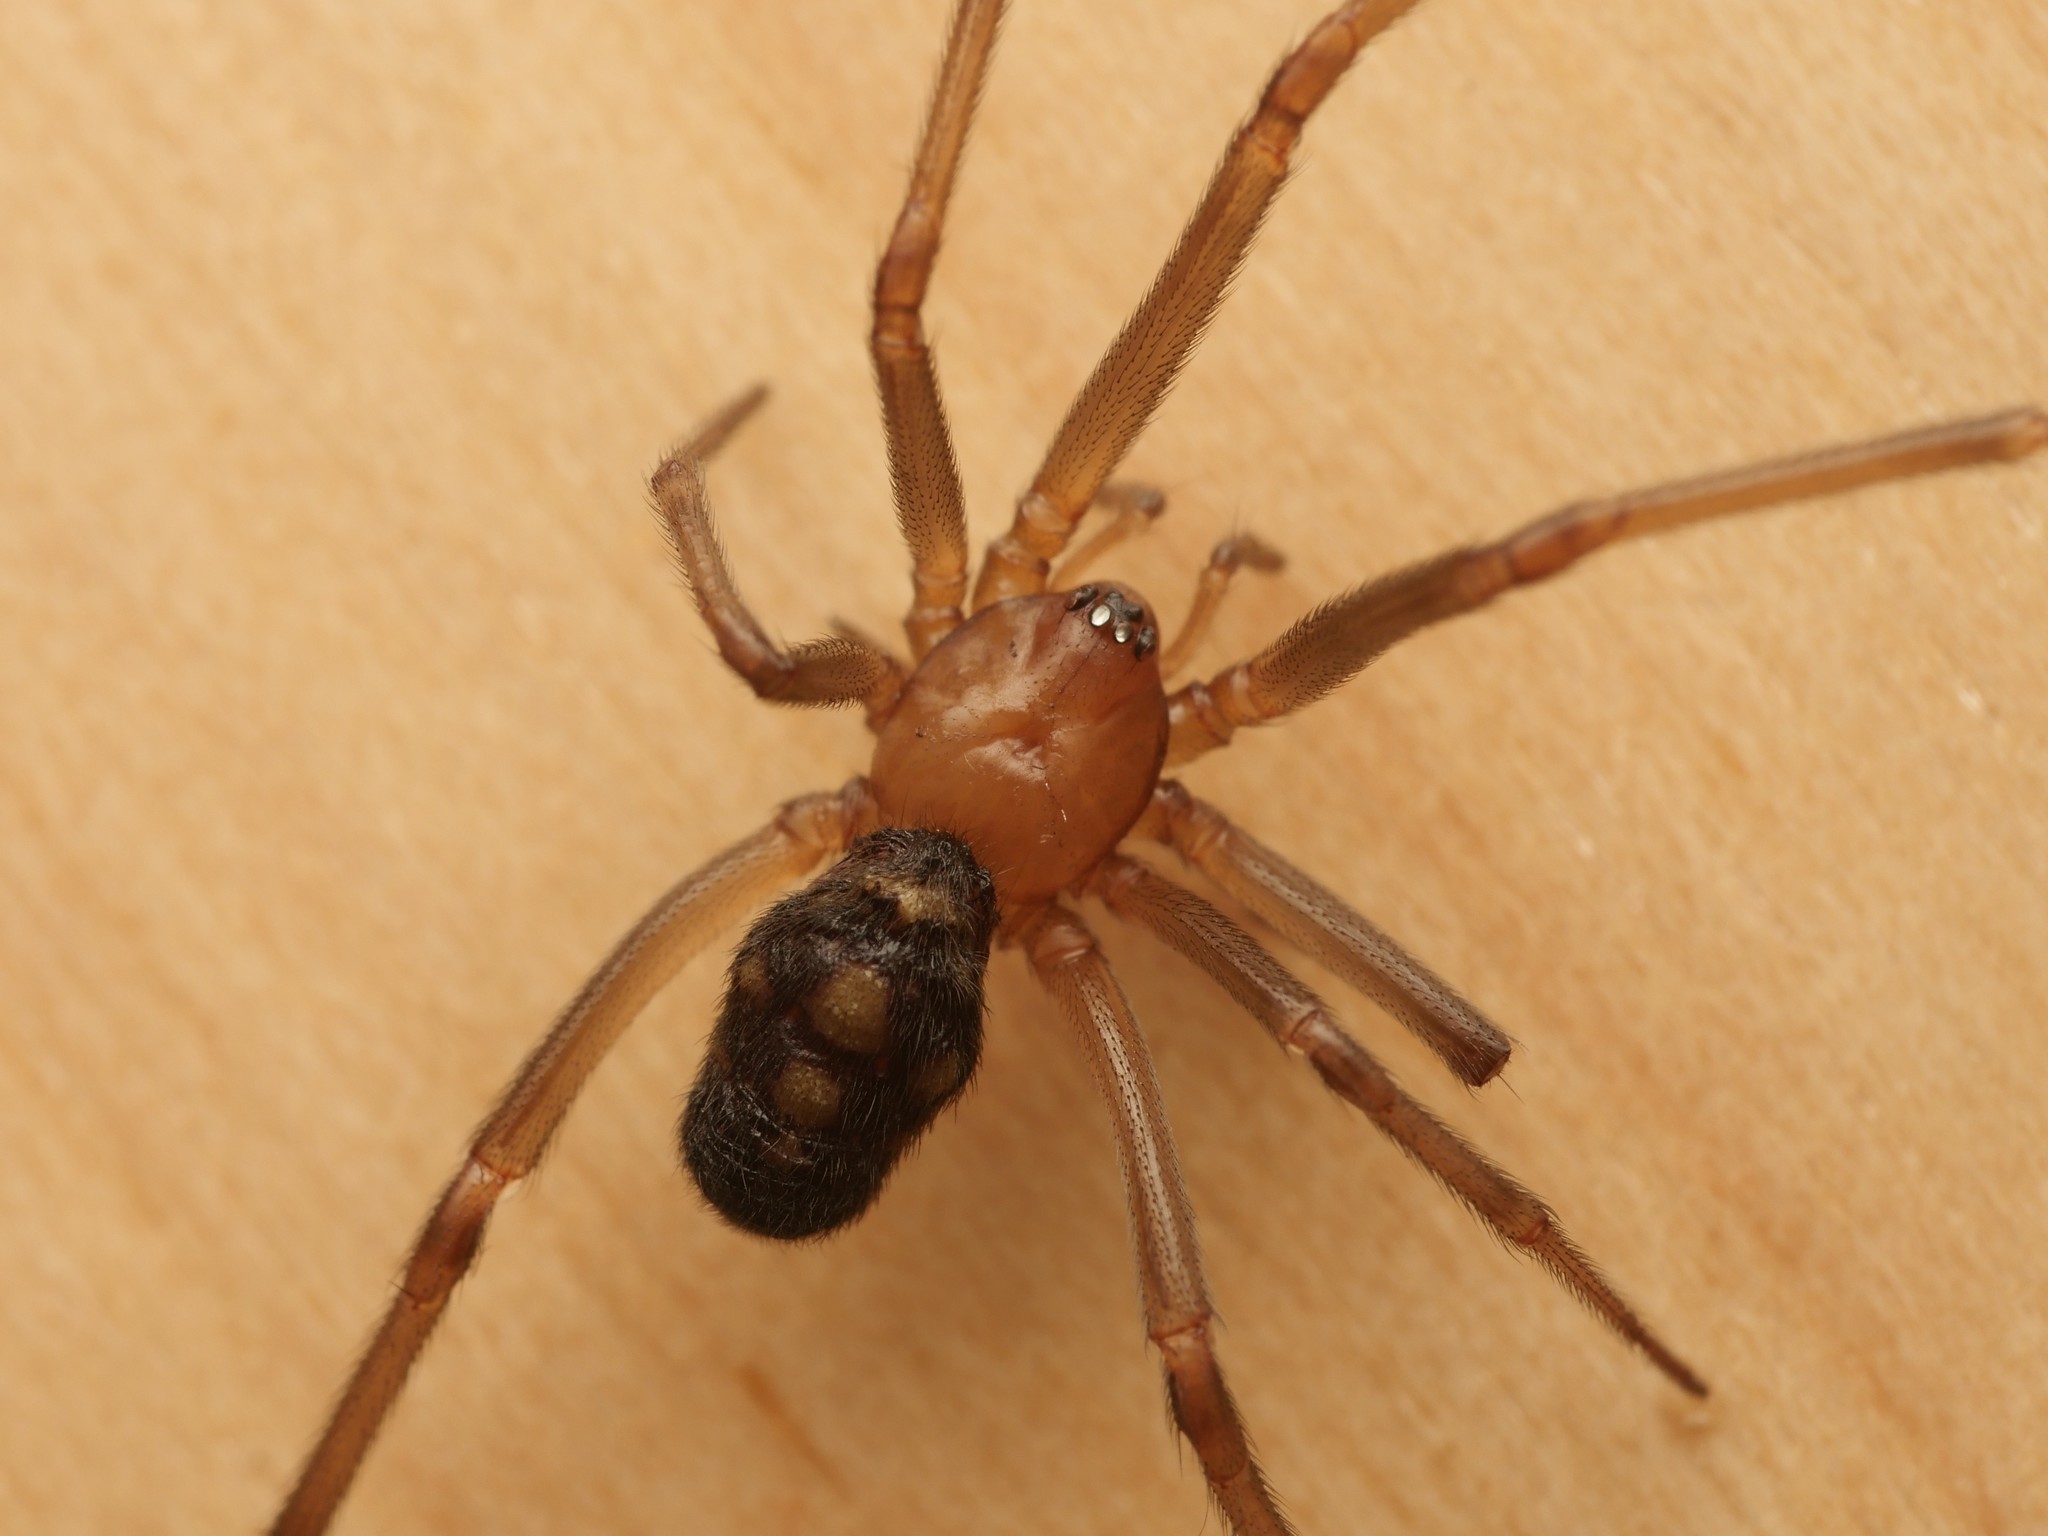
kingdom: Animalia
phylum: Arthropoda
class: Arachnida
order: Araneae
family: Theridiidae
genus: Steatoda
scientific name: Steatoda grossa
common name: False black widow
